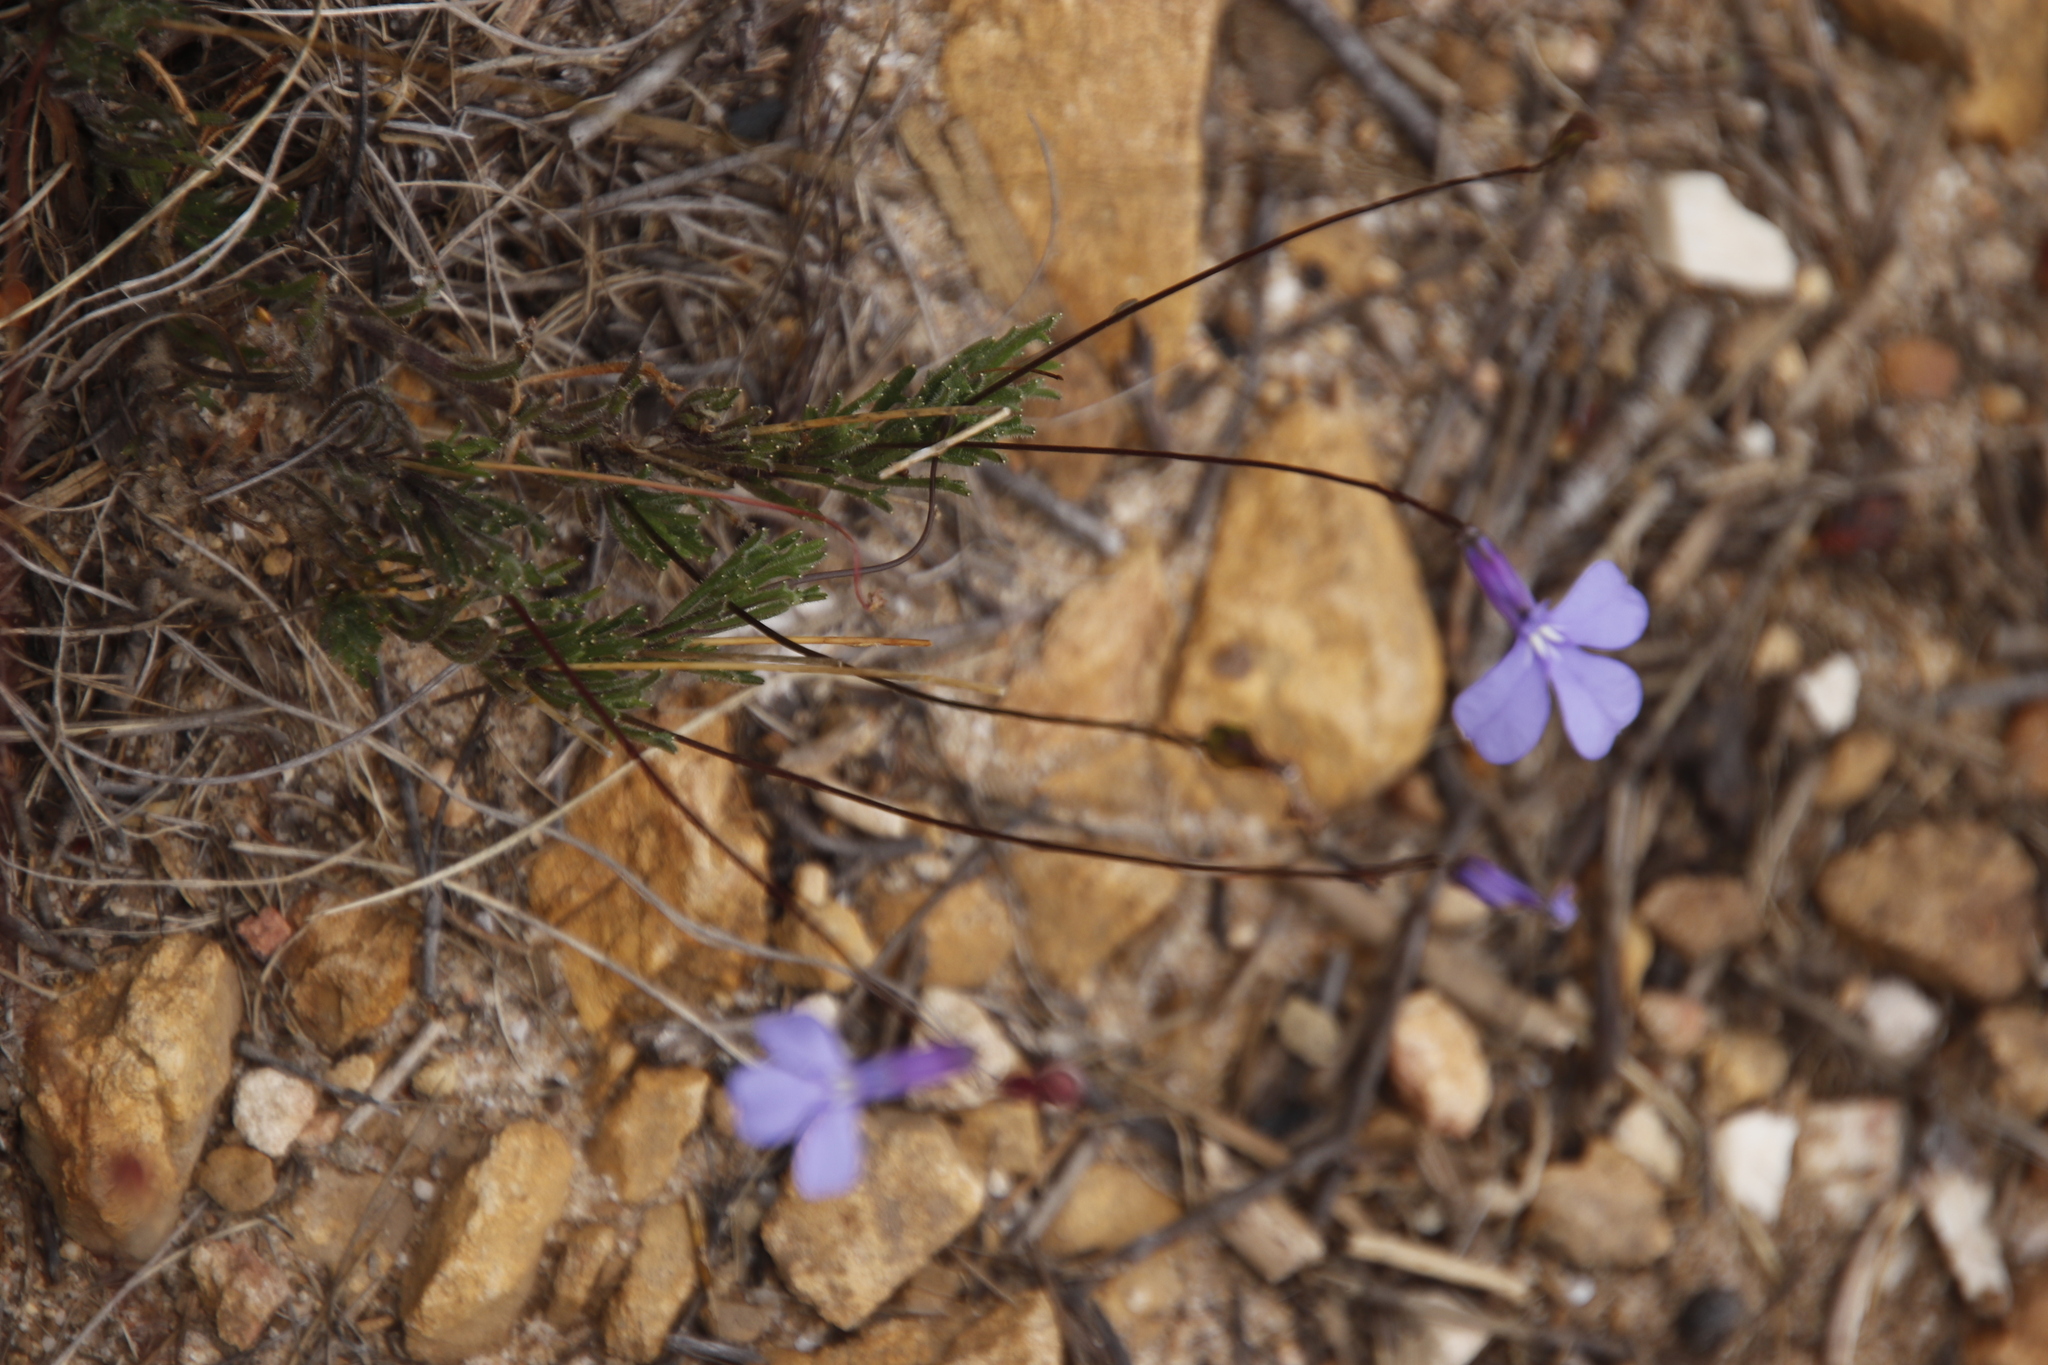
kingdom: Plantae
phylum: Tracheophyta
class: Magnoliopsida
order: Asterales
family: Campanulaceae
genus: Lobelia
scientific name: Lobelia chamaepitys
